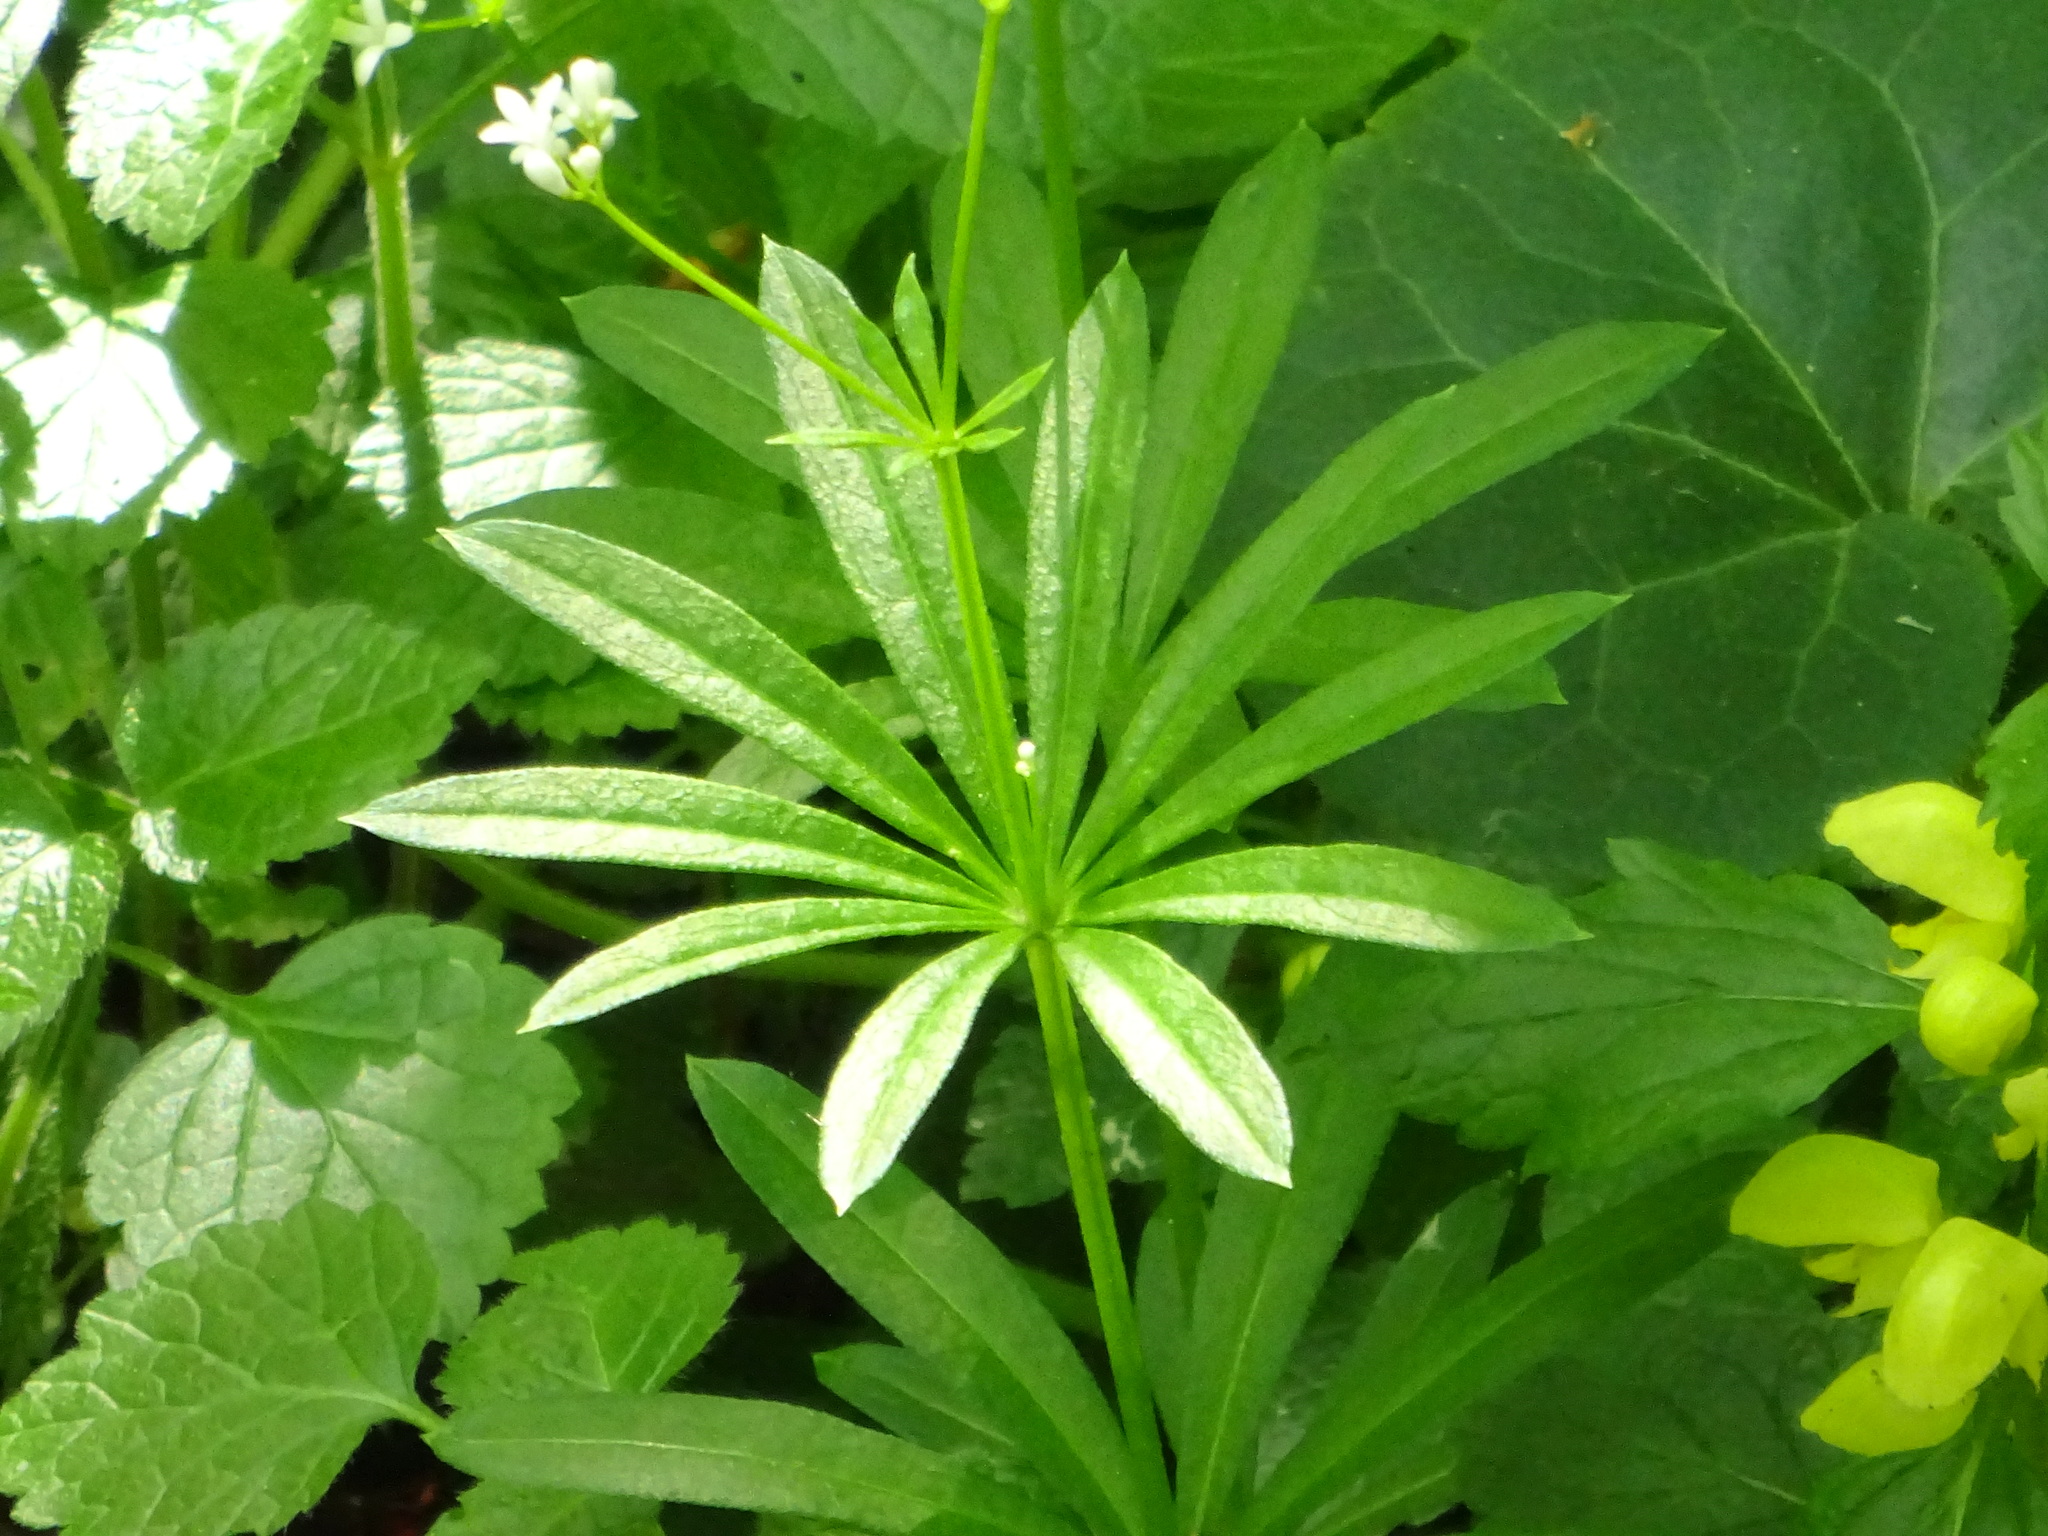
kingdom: Plantae
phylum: Tracheophyta
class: Magnoliopsida
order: Gentianales
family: Rubiaceae
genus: Galium
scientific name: Galium odoratum
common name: Sweet woodruff
